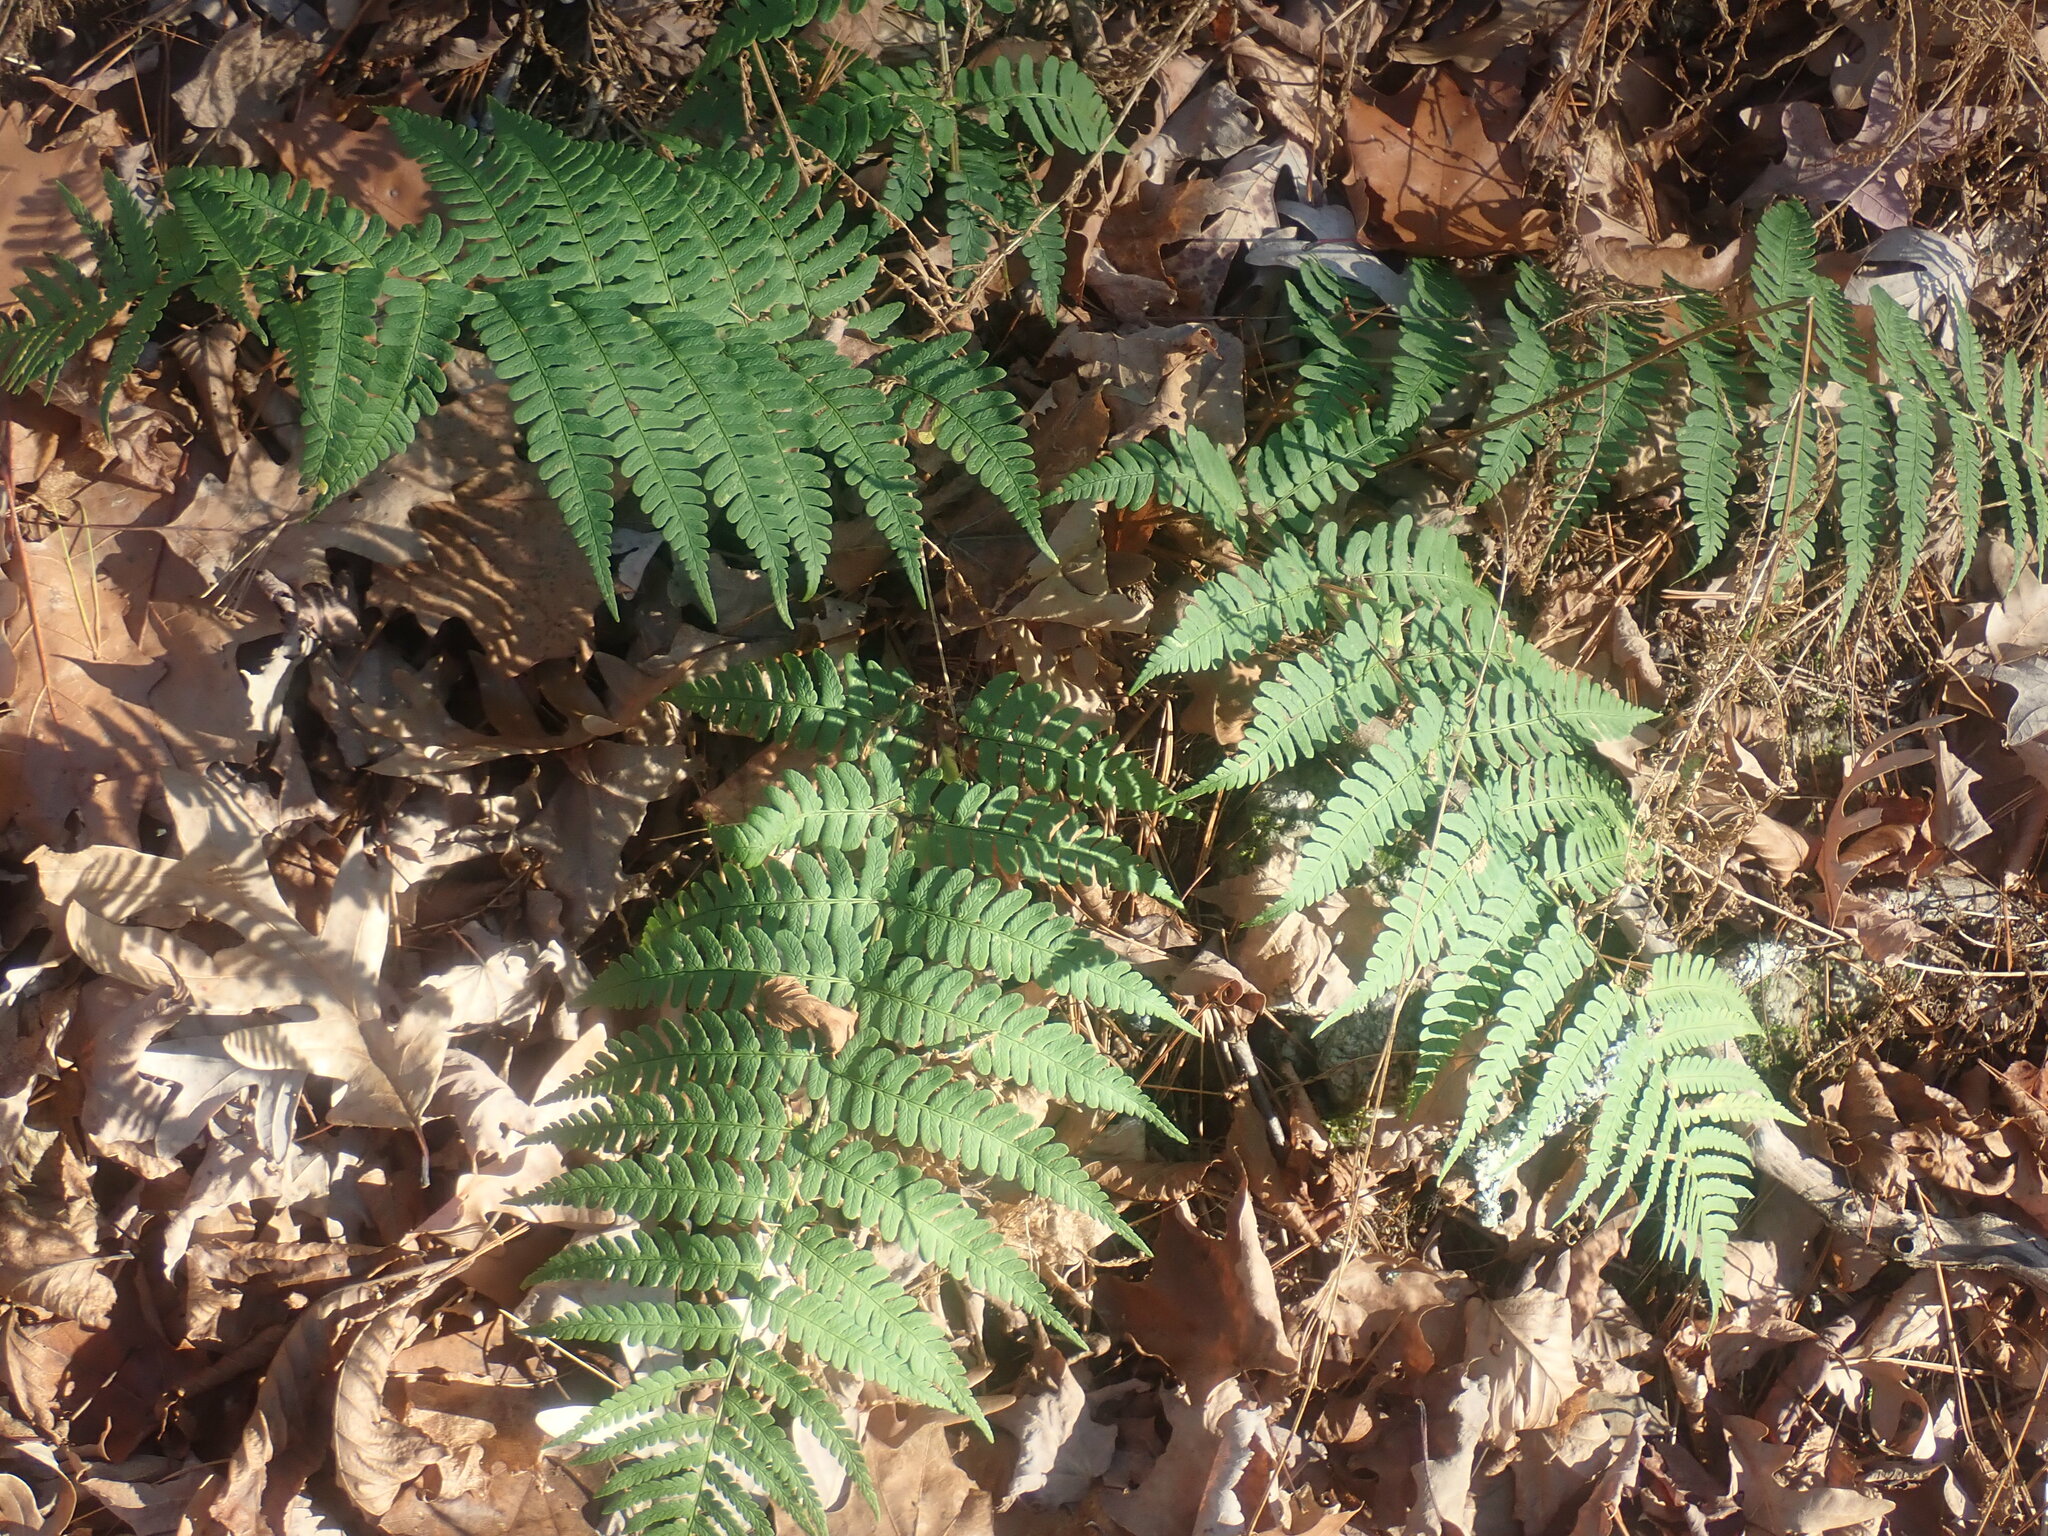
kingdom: Plantae
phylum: Tracheophyta
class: Polypodiopsida
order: Polypodiales
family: Dryopteridaceae
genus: Dryopteris
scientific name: Dryopteris marginalis
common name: Marginal wood fern
